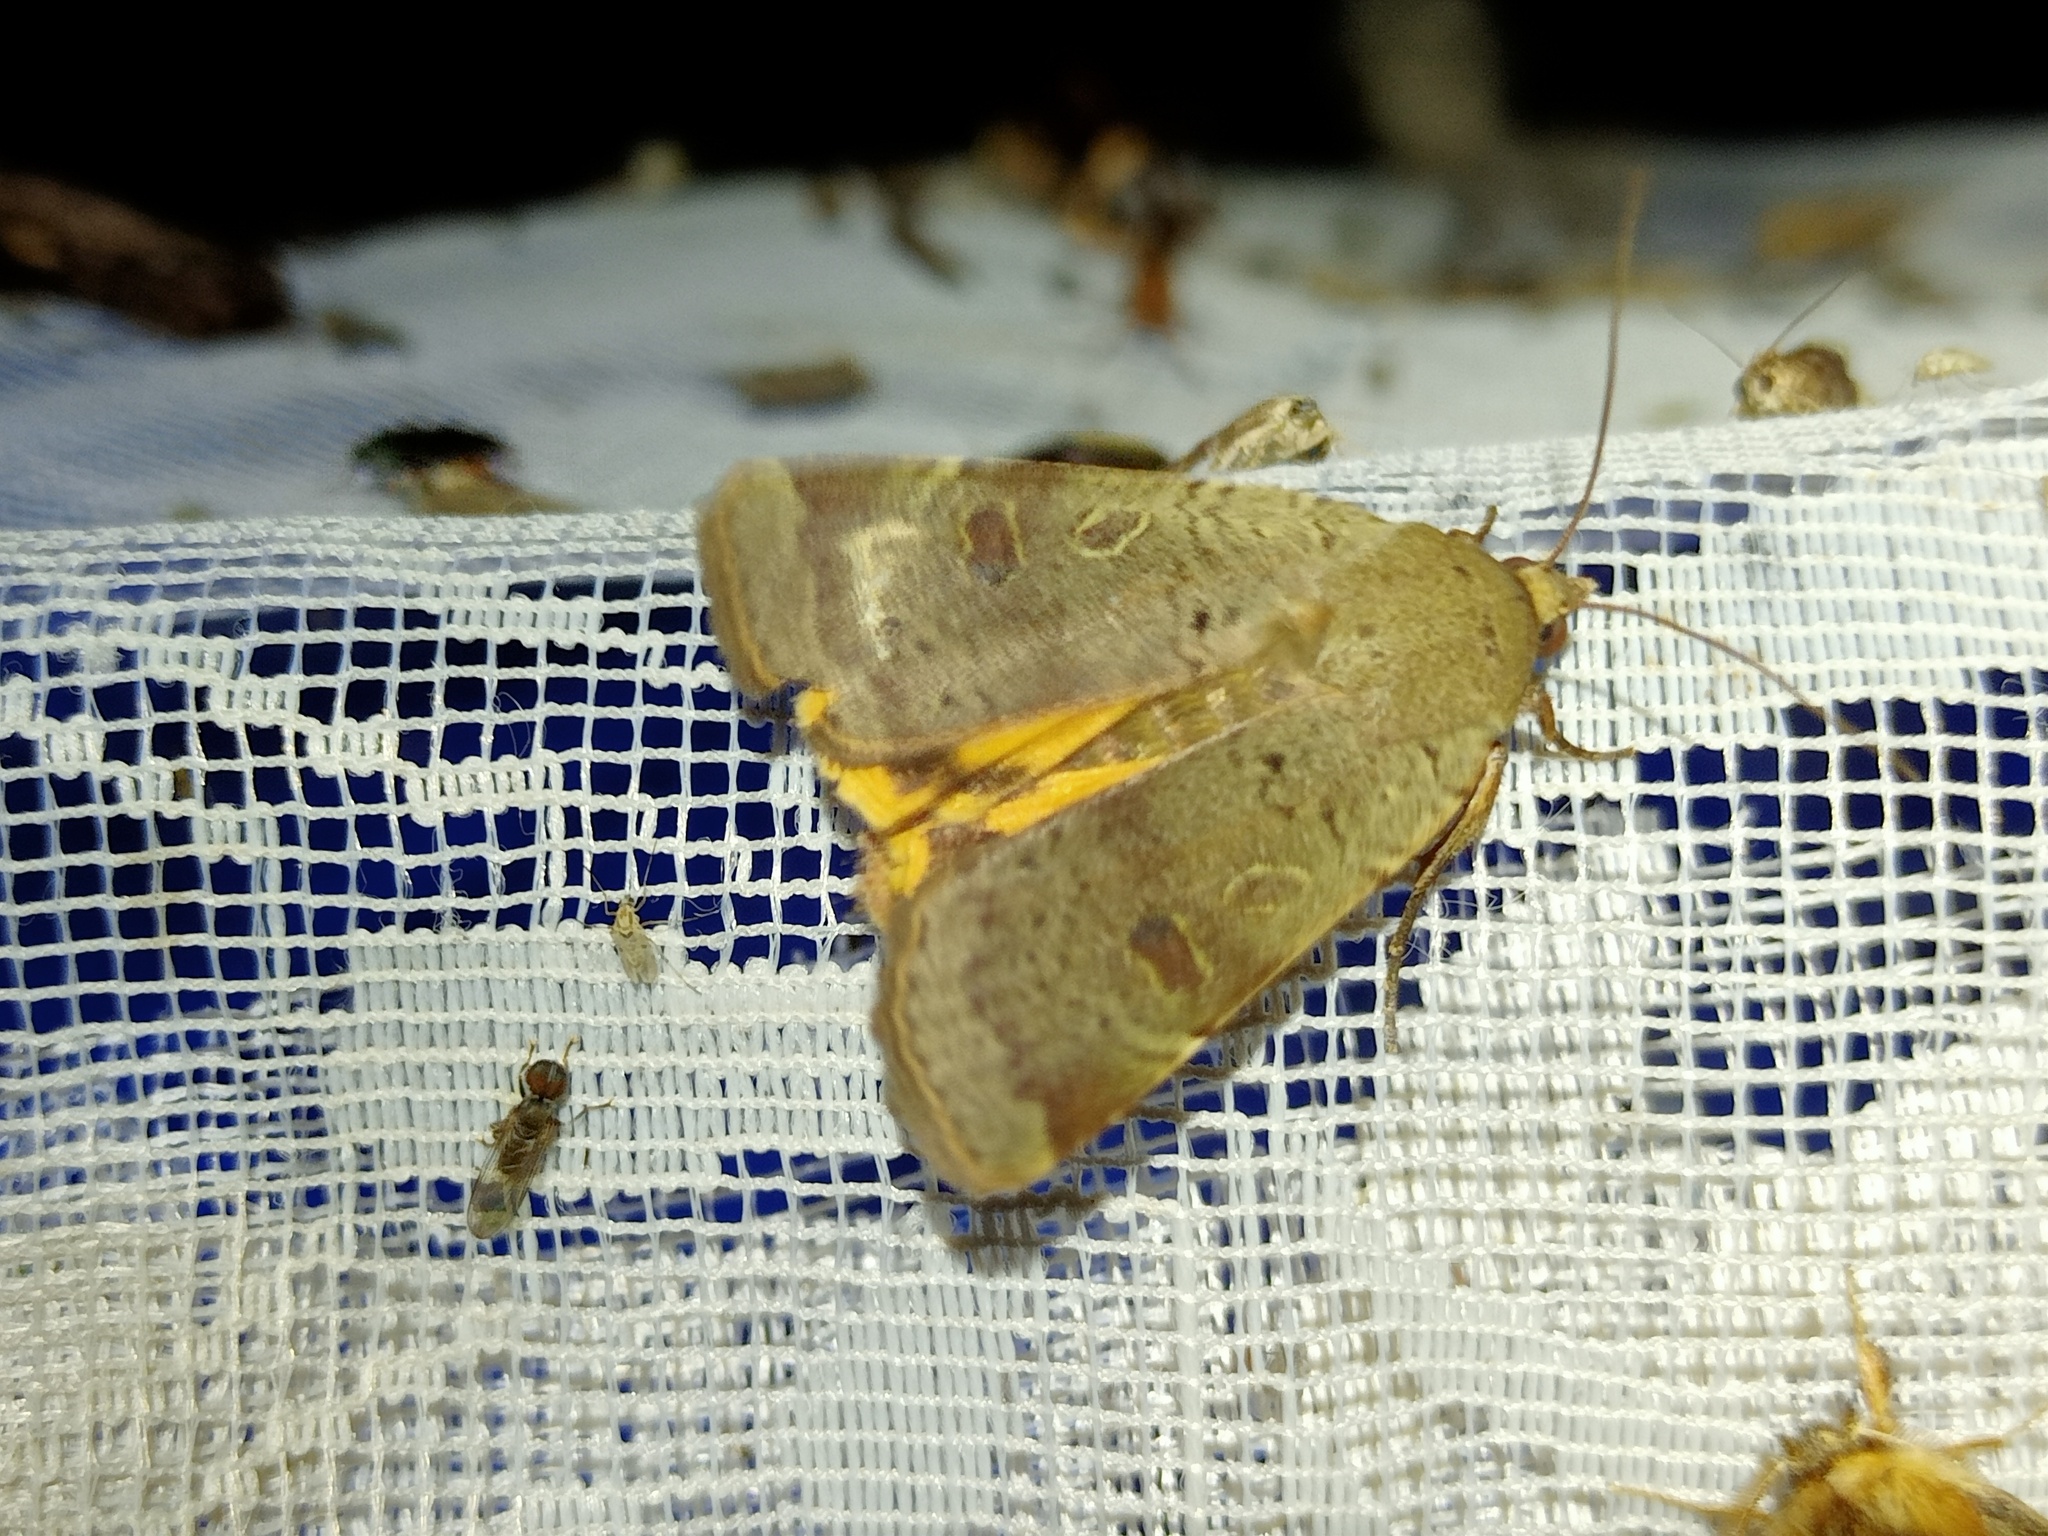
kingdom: Animalia
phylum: Arthropoda
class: Insecta
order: Lepidoptera
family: Noctuidae
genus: Noctua
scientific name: Noctua comes
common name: Lesser yellow underwing
